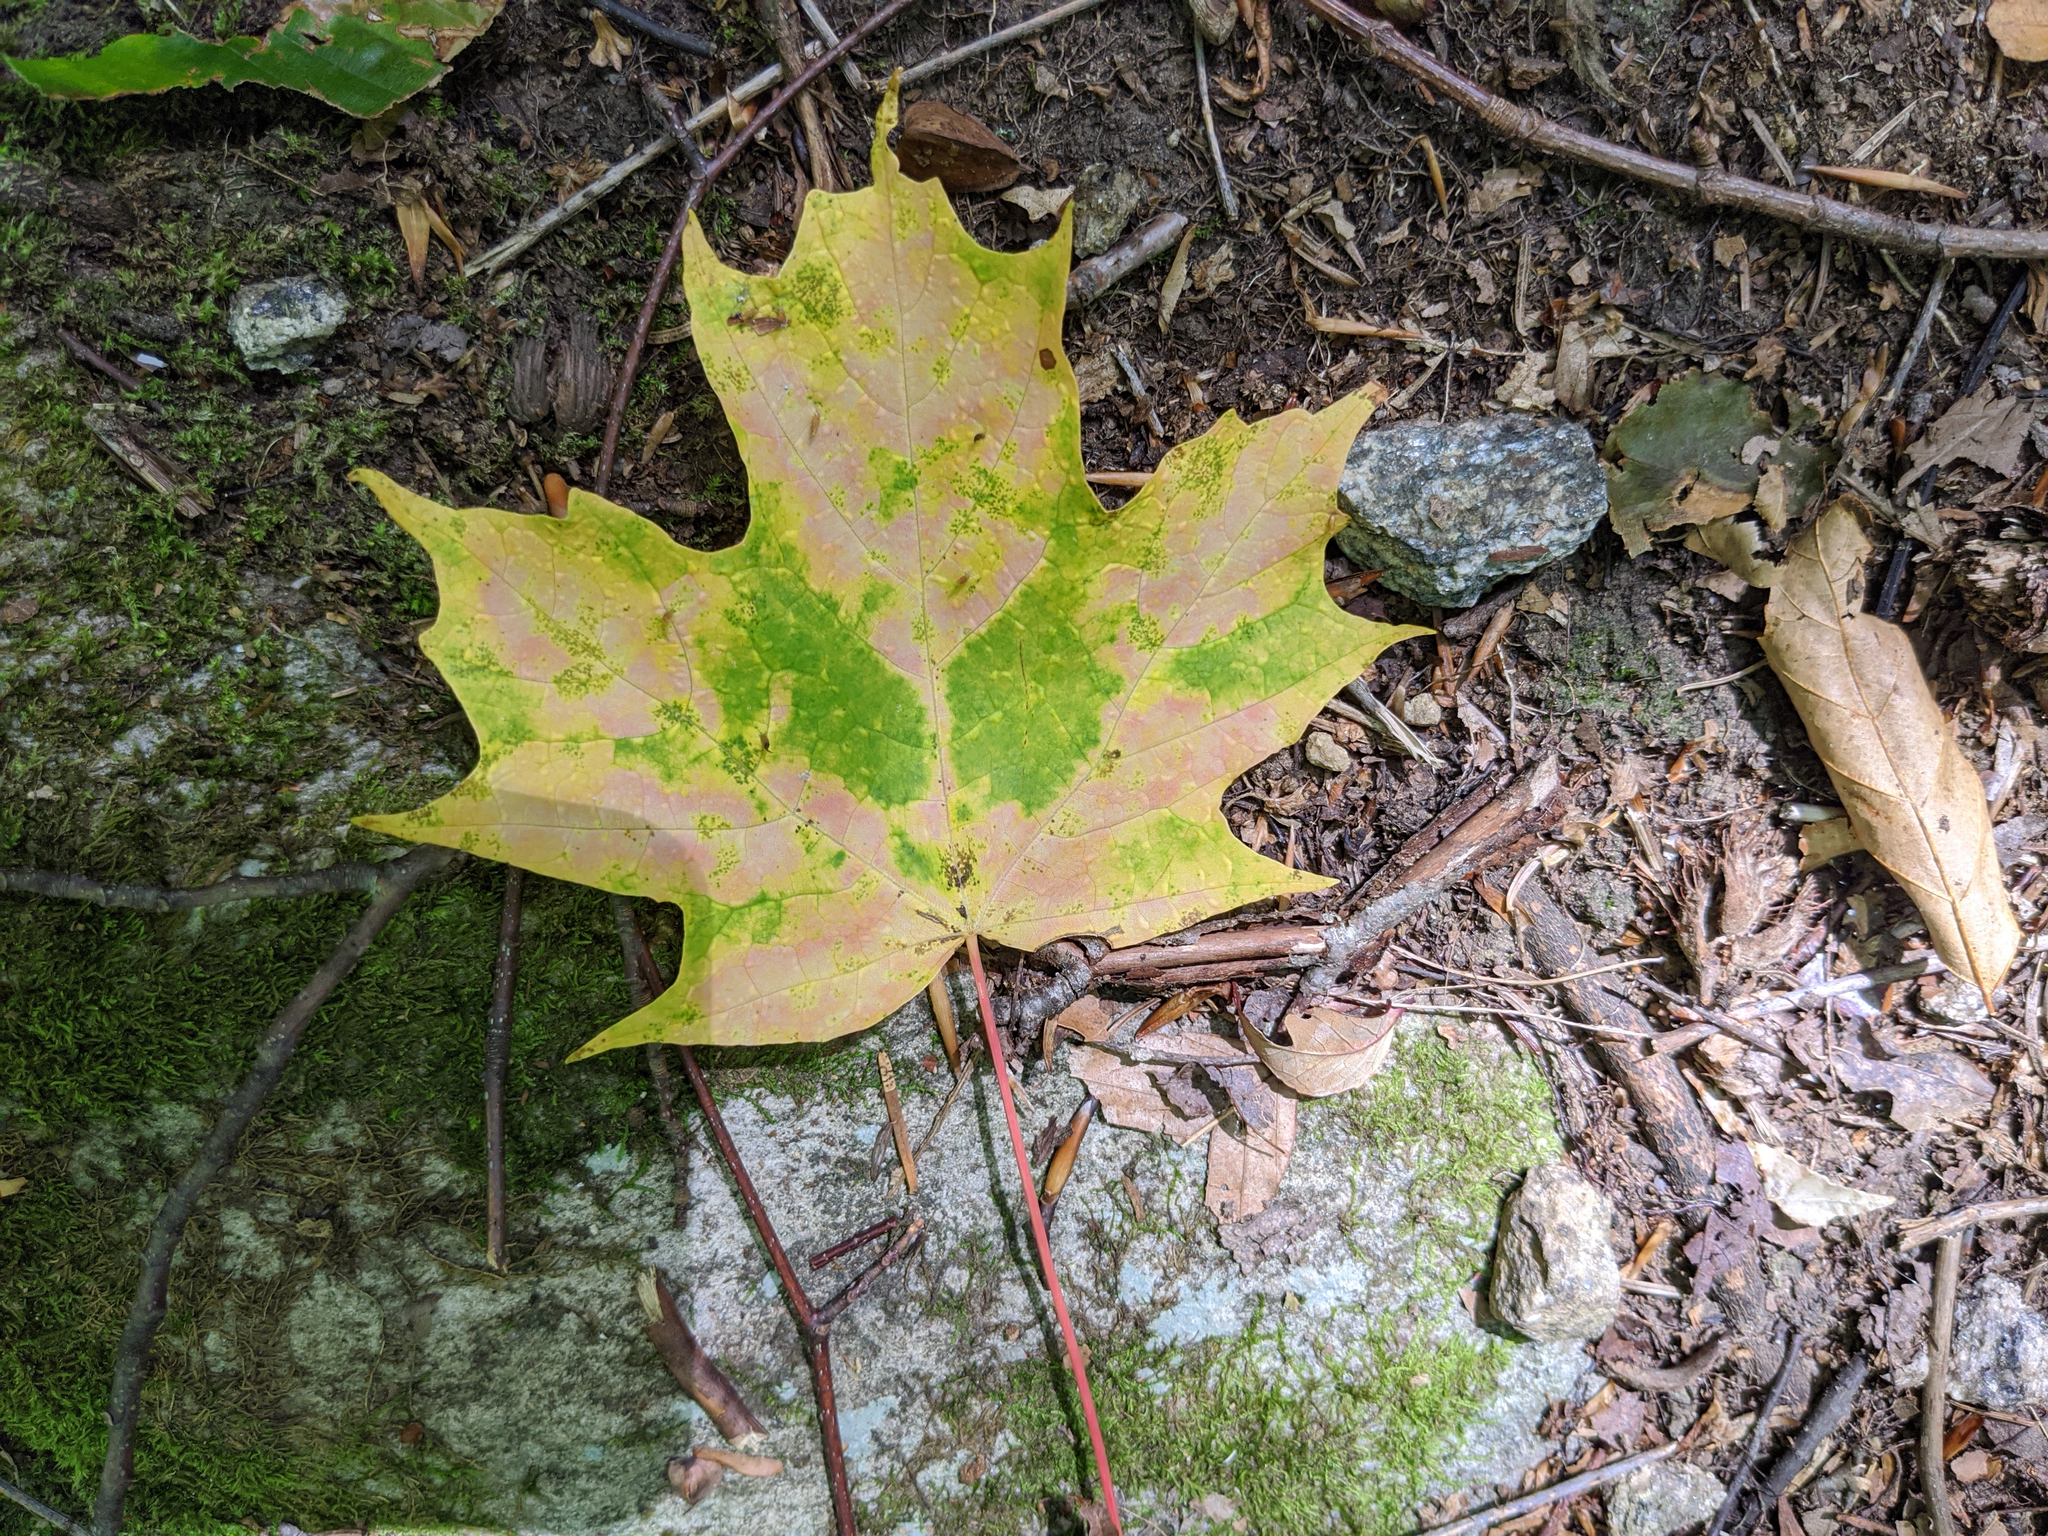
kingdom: Plantae
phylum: Tracheophyta
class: Magnoliopsida
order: Sapindales
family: Sapindaceae
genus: Acer
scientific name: Acer saccharum
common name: Sugar maple
